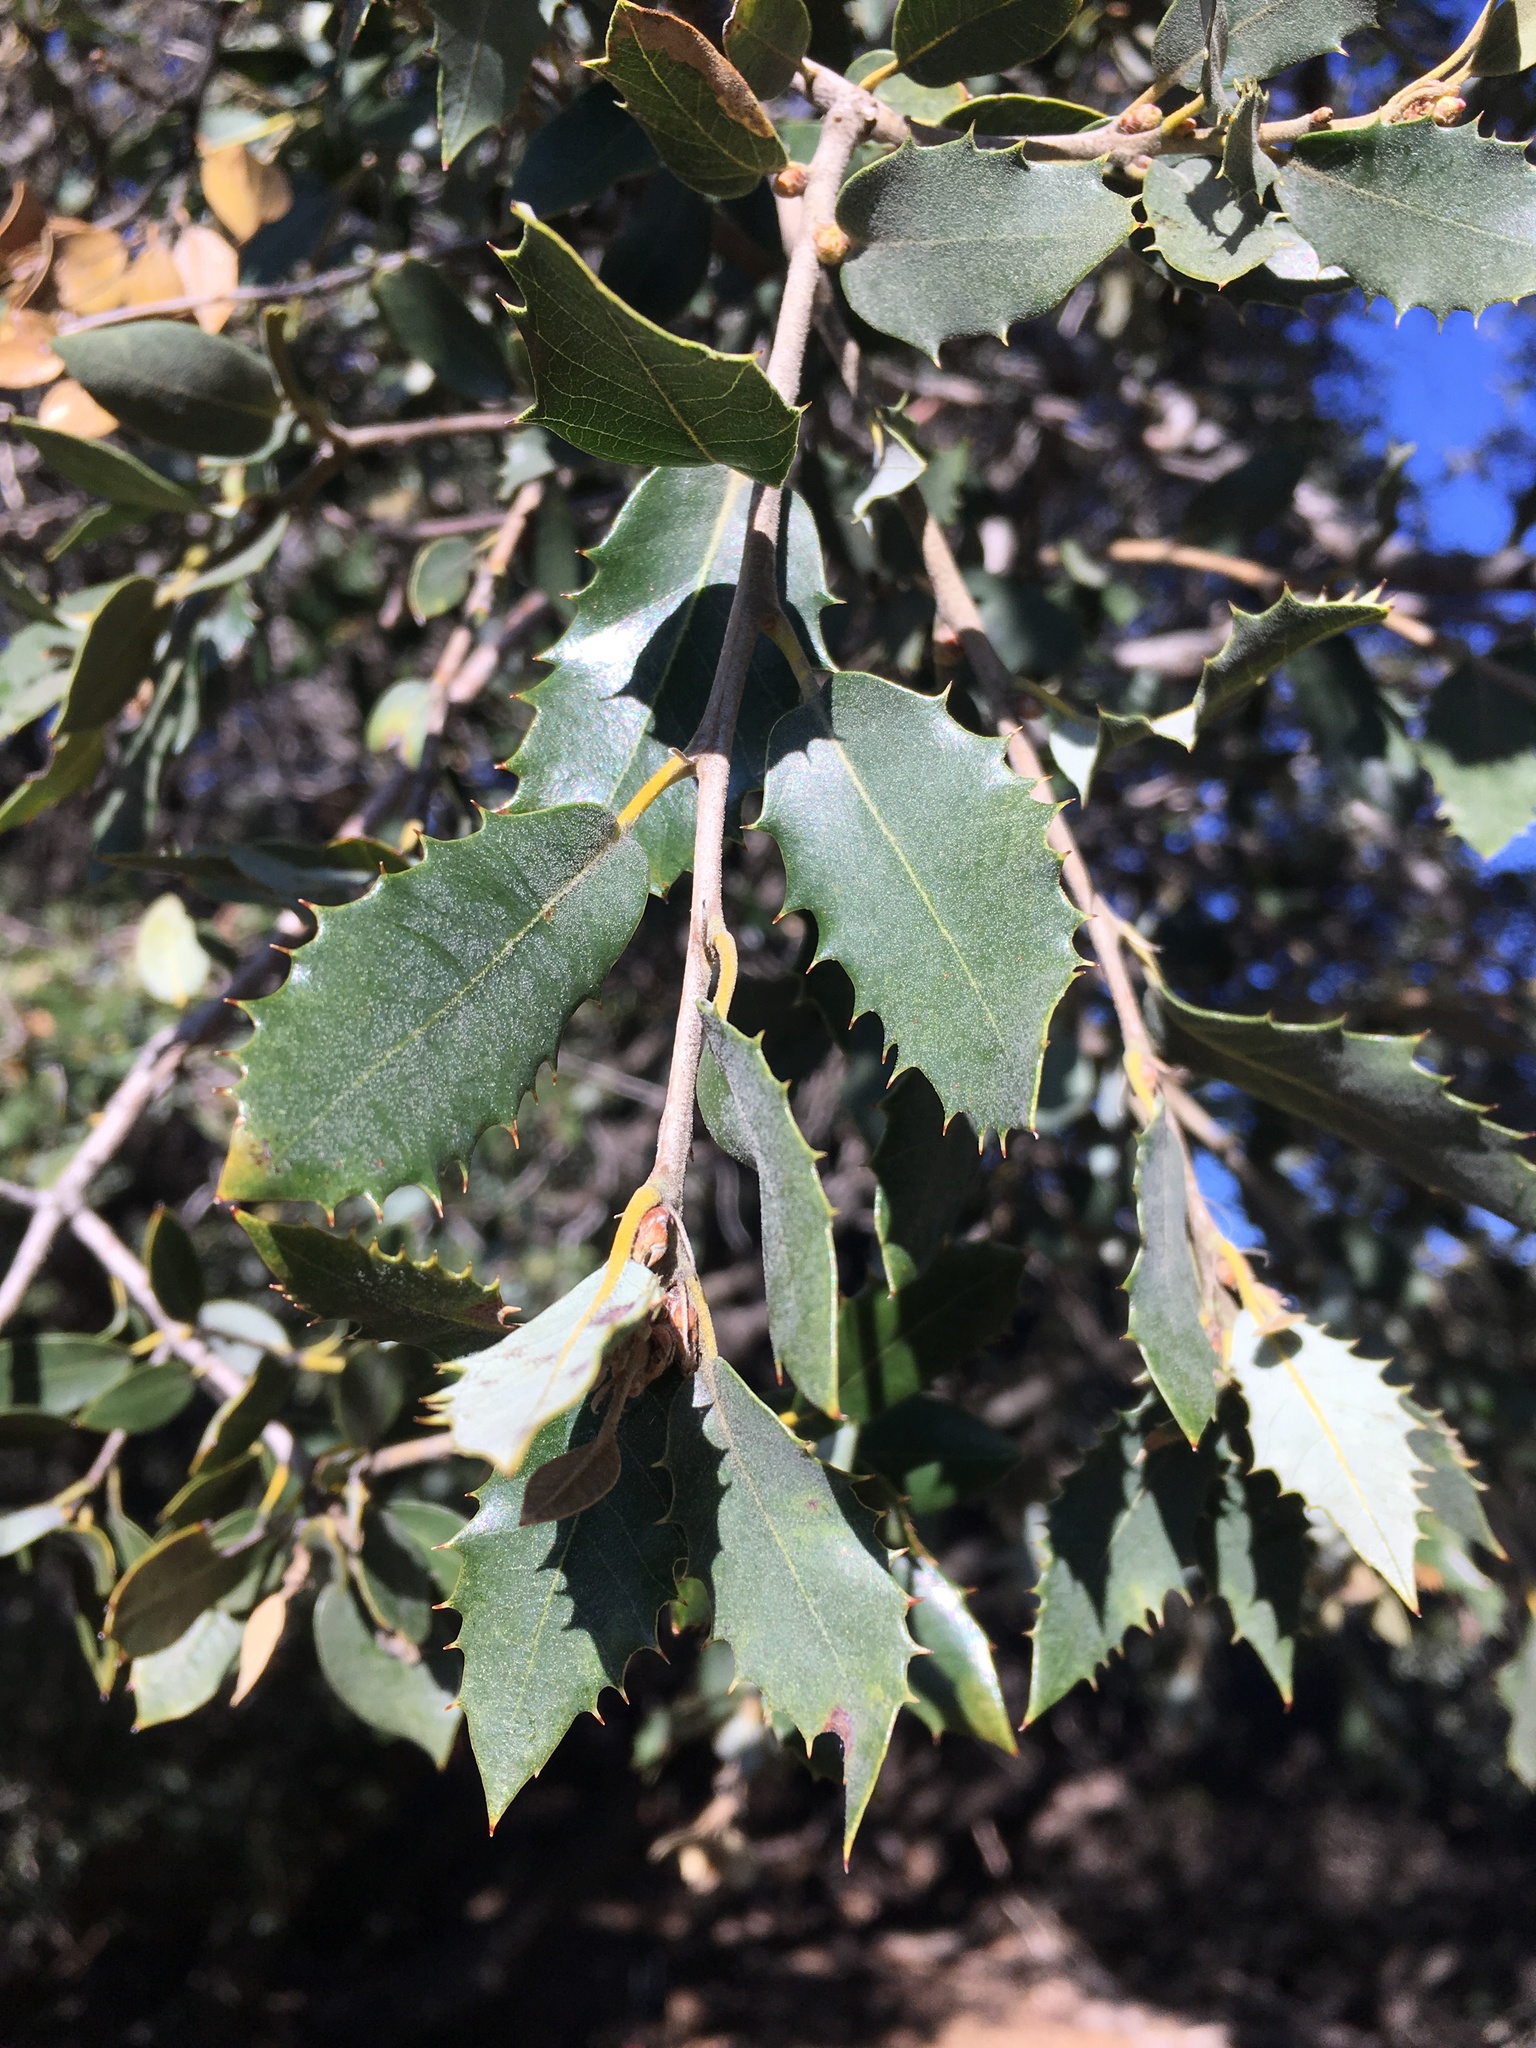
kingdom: Plantae
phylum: Tracheophyta
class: Magnoliopsida
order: Fagales
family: Fagaceae
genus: Quercus
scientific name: Quercus chrysolepis
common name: Canyon live oak
